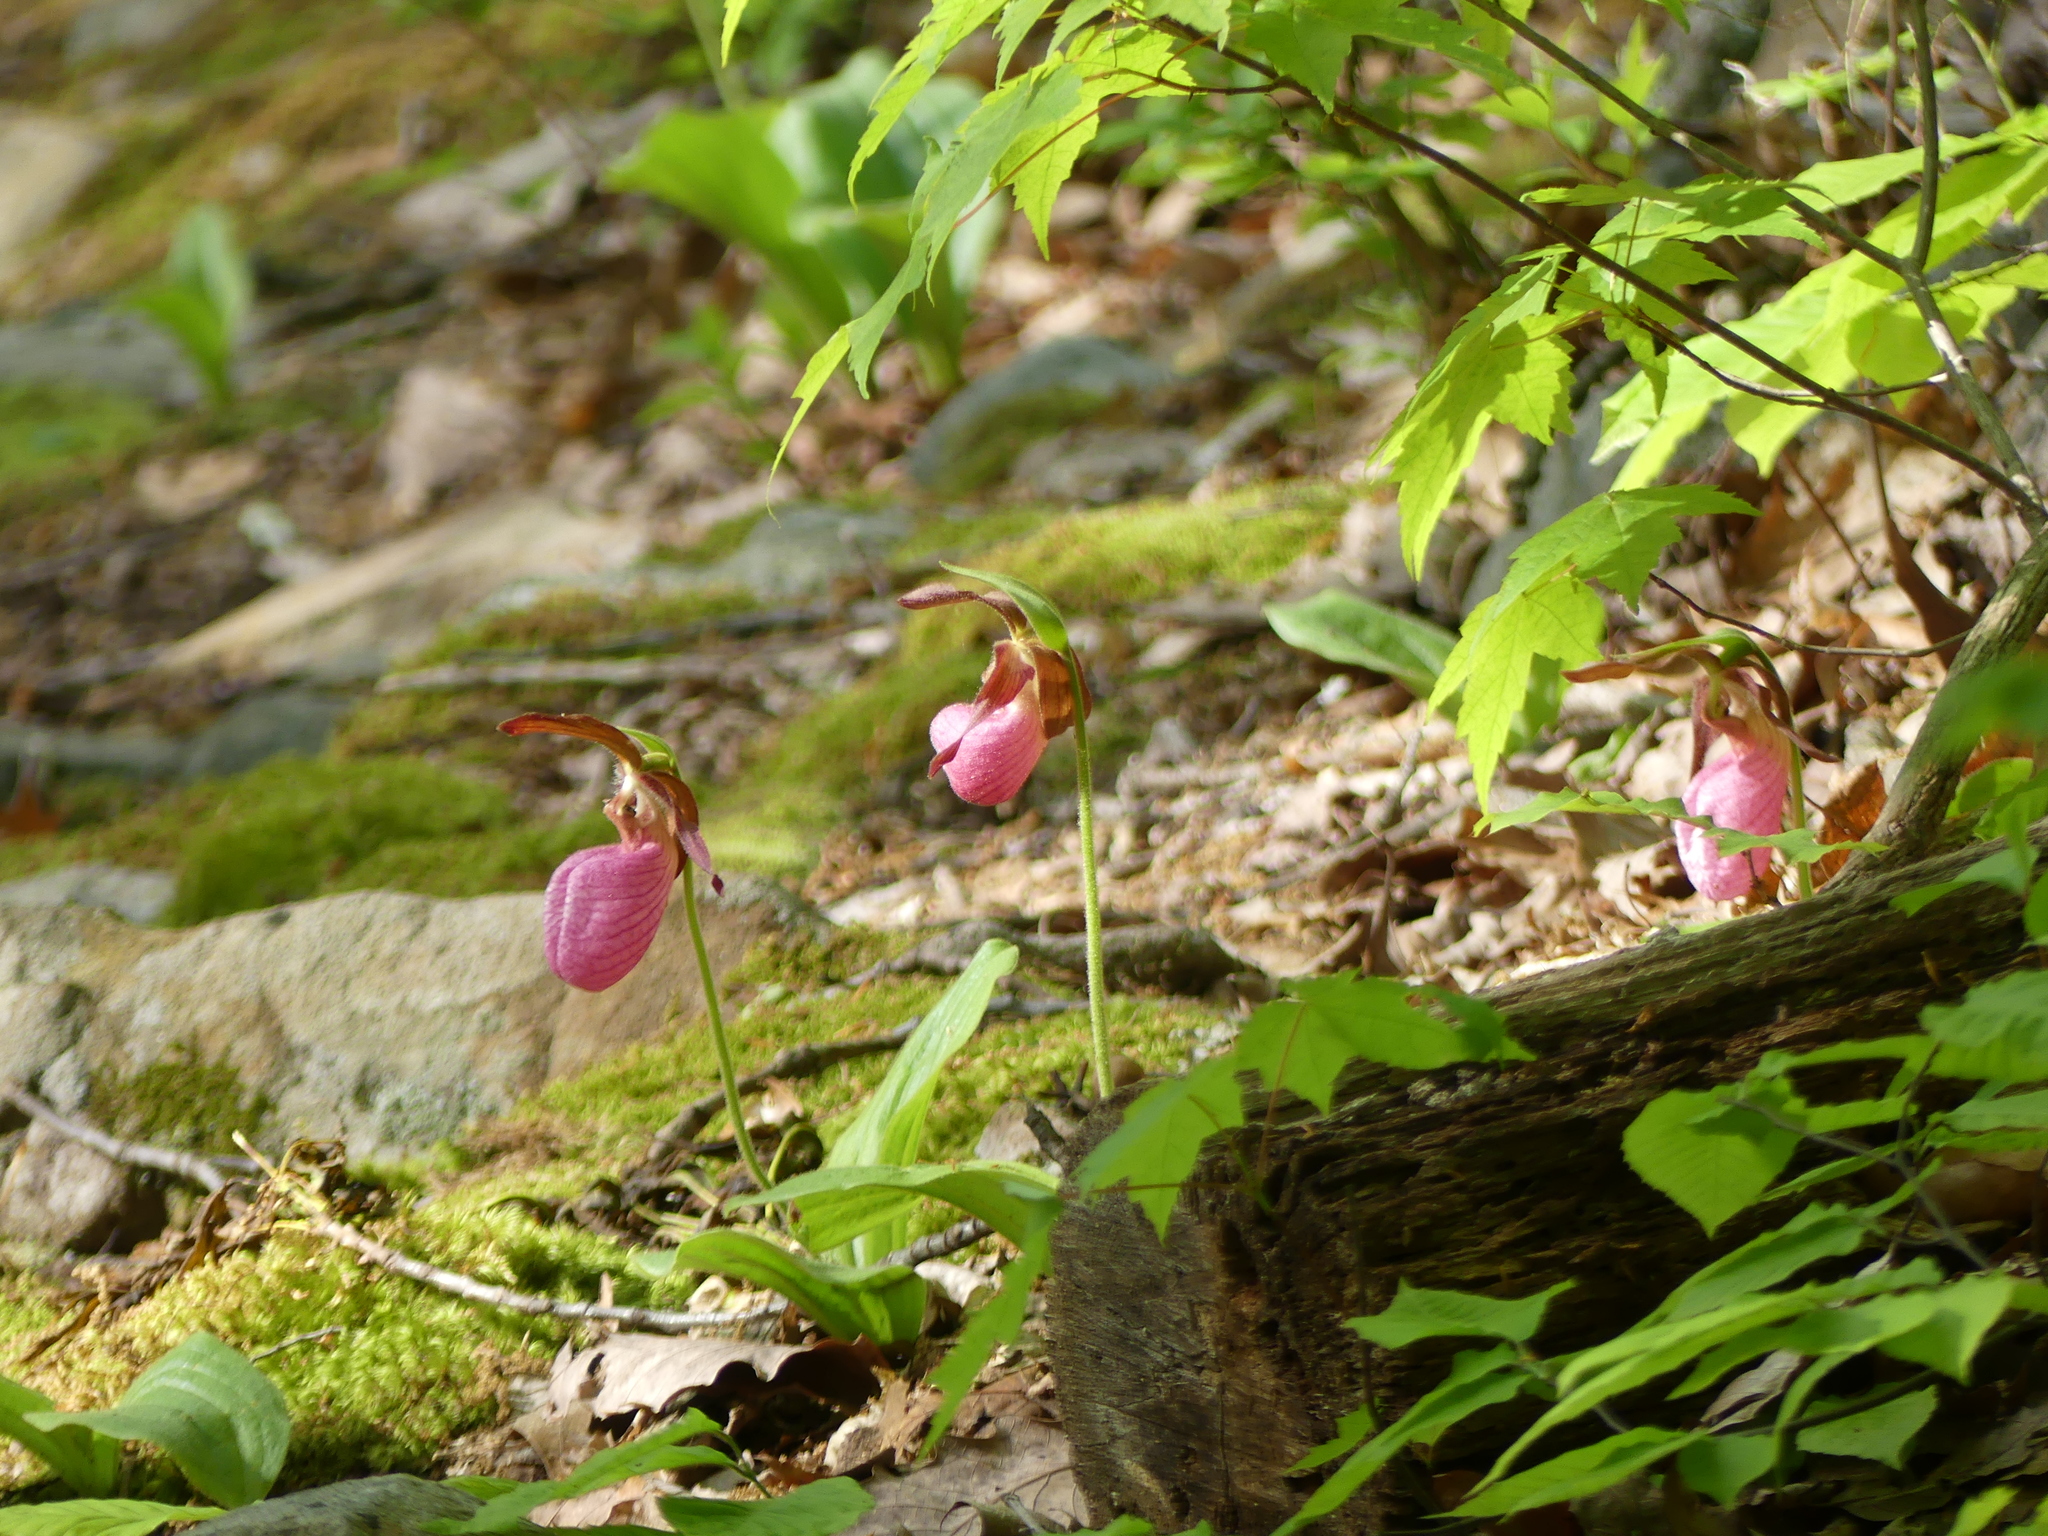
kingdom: Plantae
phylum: Tracheophyta
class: Liliopsida
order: Asparagales
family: Orchidaceae
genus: Cypripedium
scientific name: Cypripedium acaule
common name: Pink lady's-slipper
